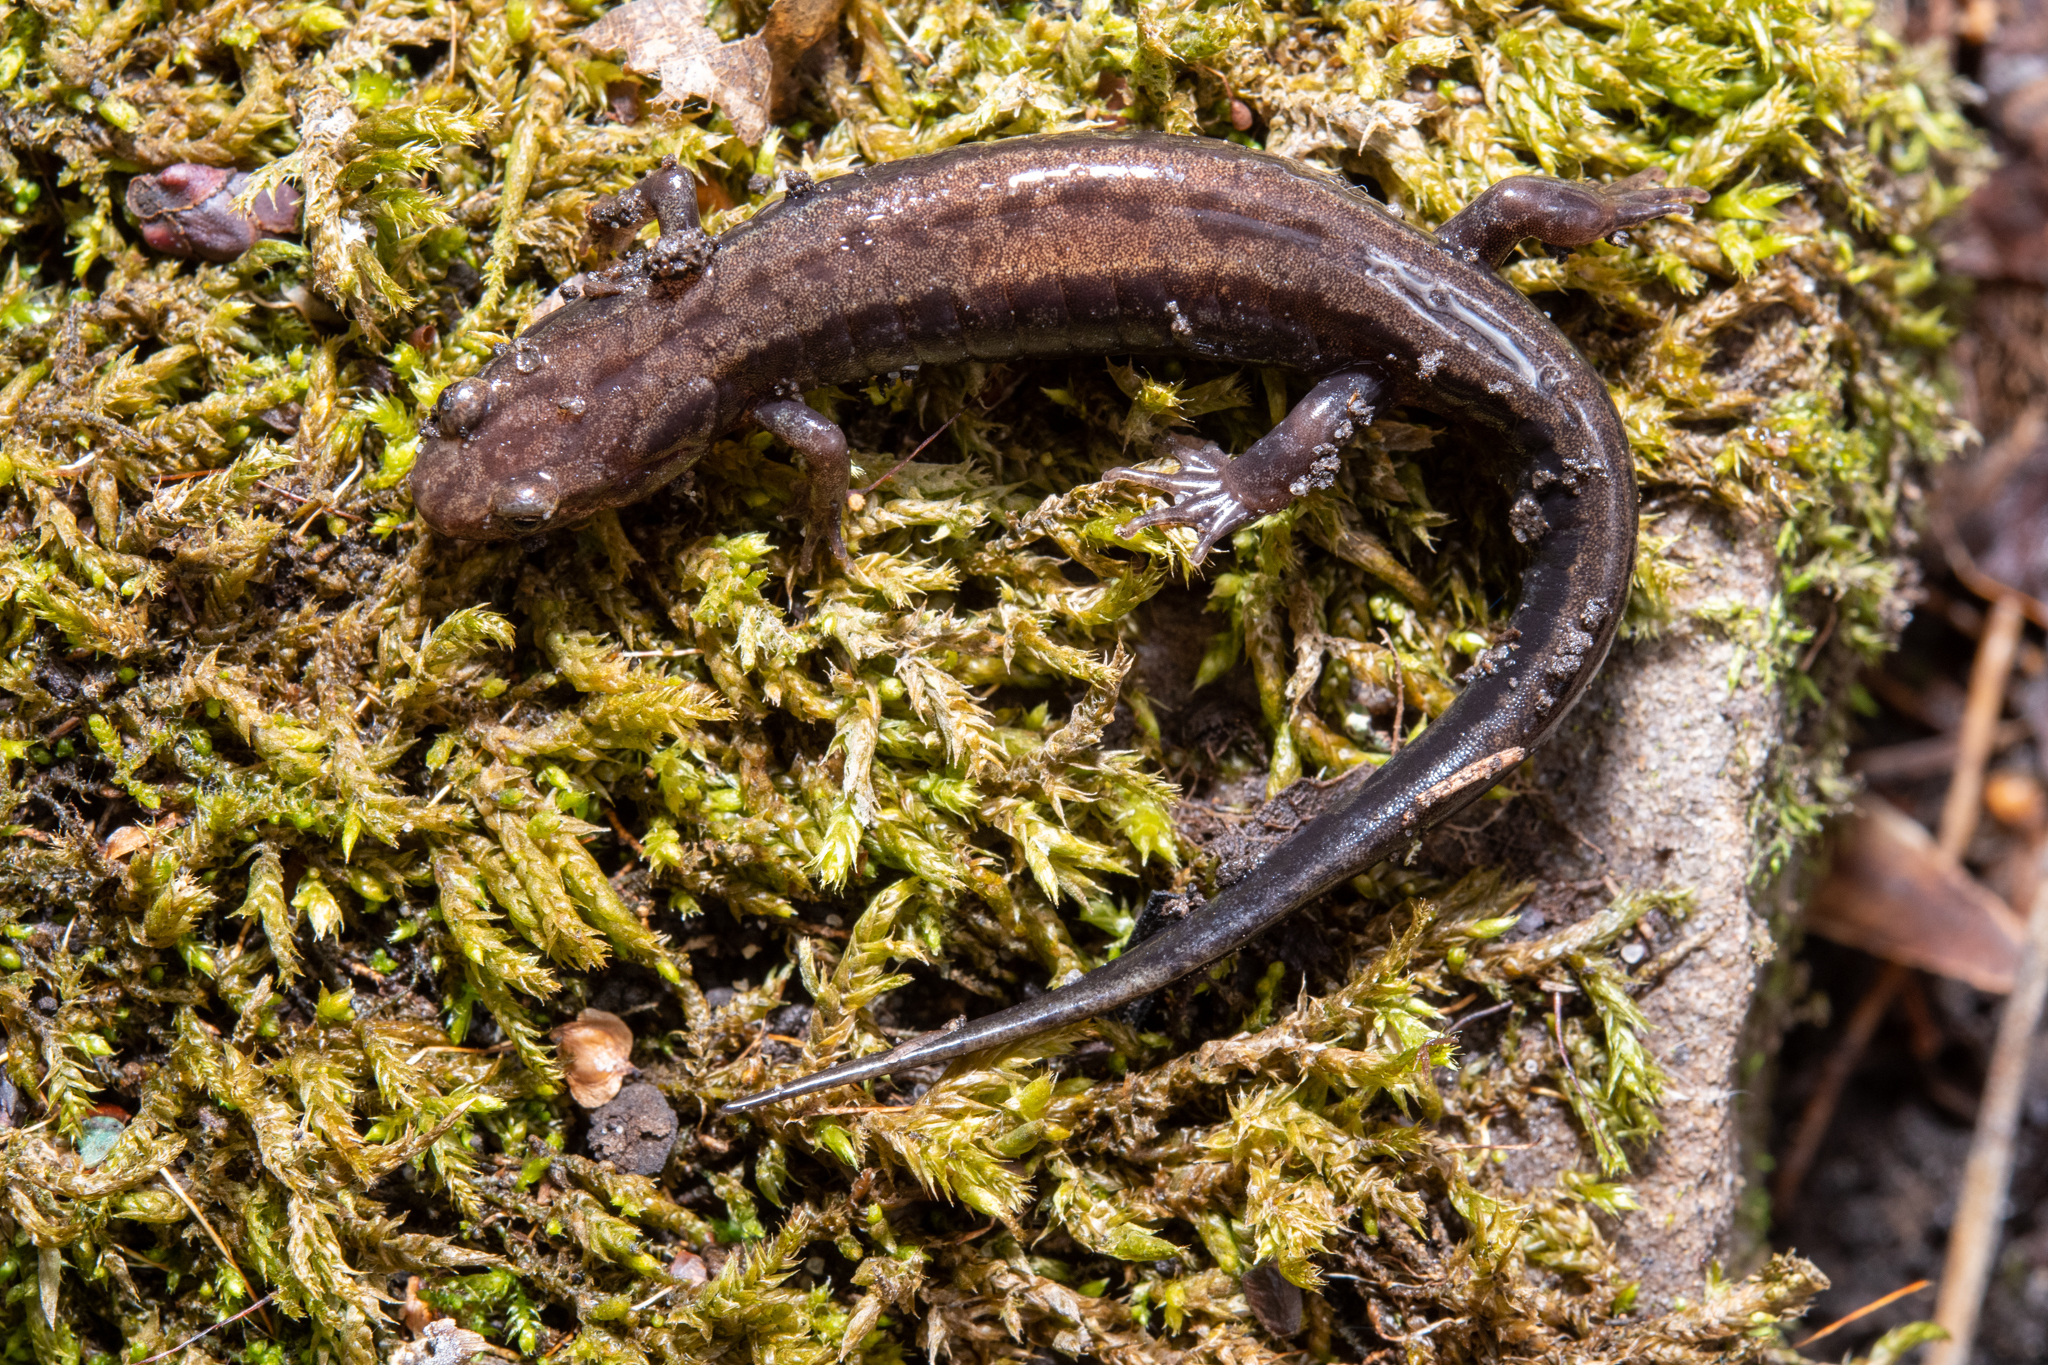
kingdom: Animalia
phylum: Chordata
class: Amphibia
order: Caudata
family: Plethodontidae
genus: Desmognathus
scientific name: Desmognathus ochrophaeus
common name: Allegheny mountain dusky salamander
